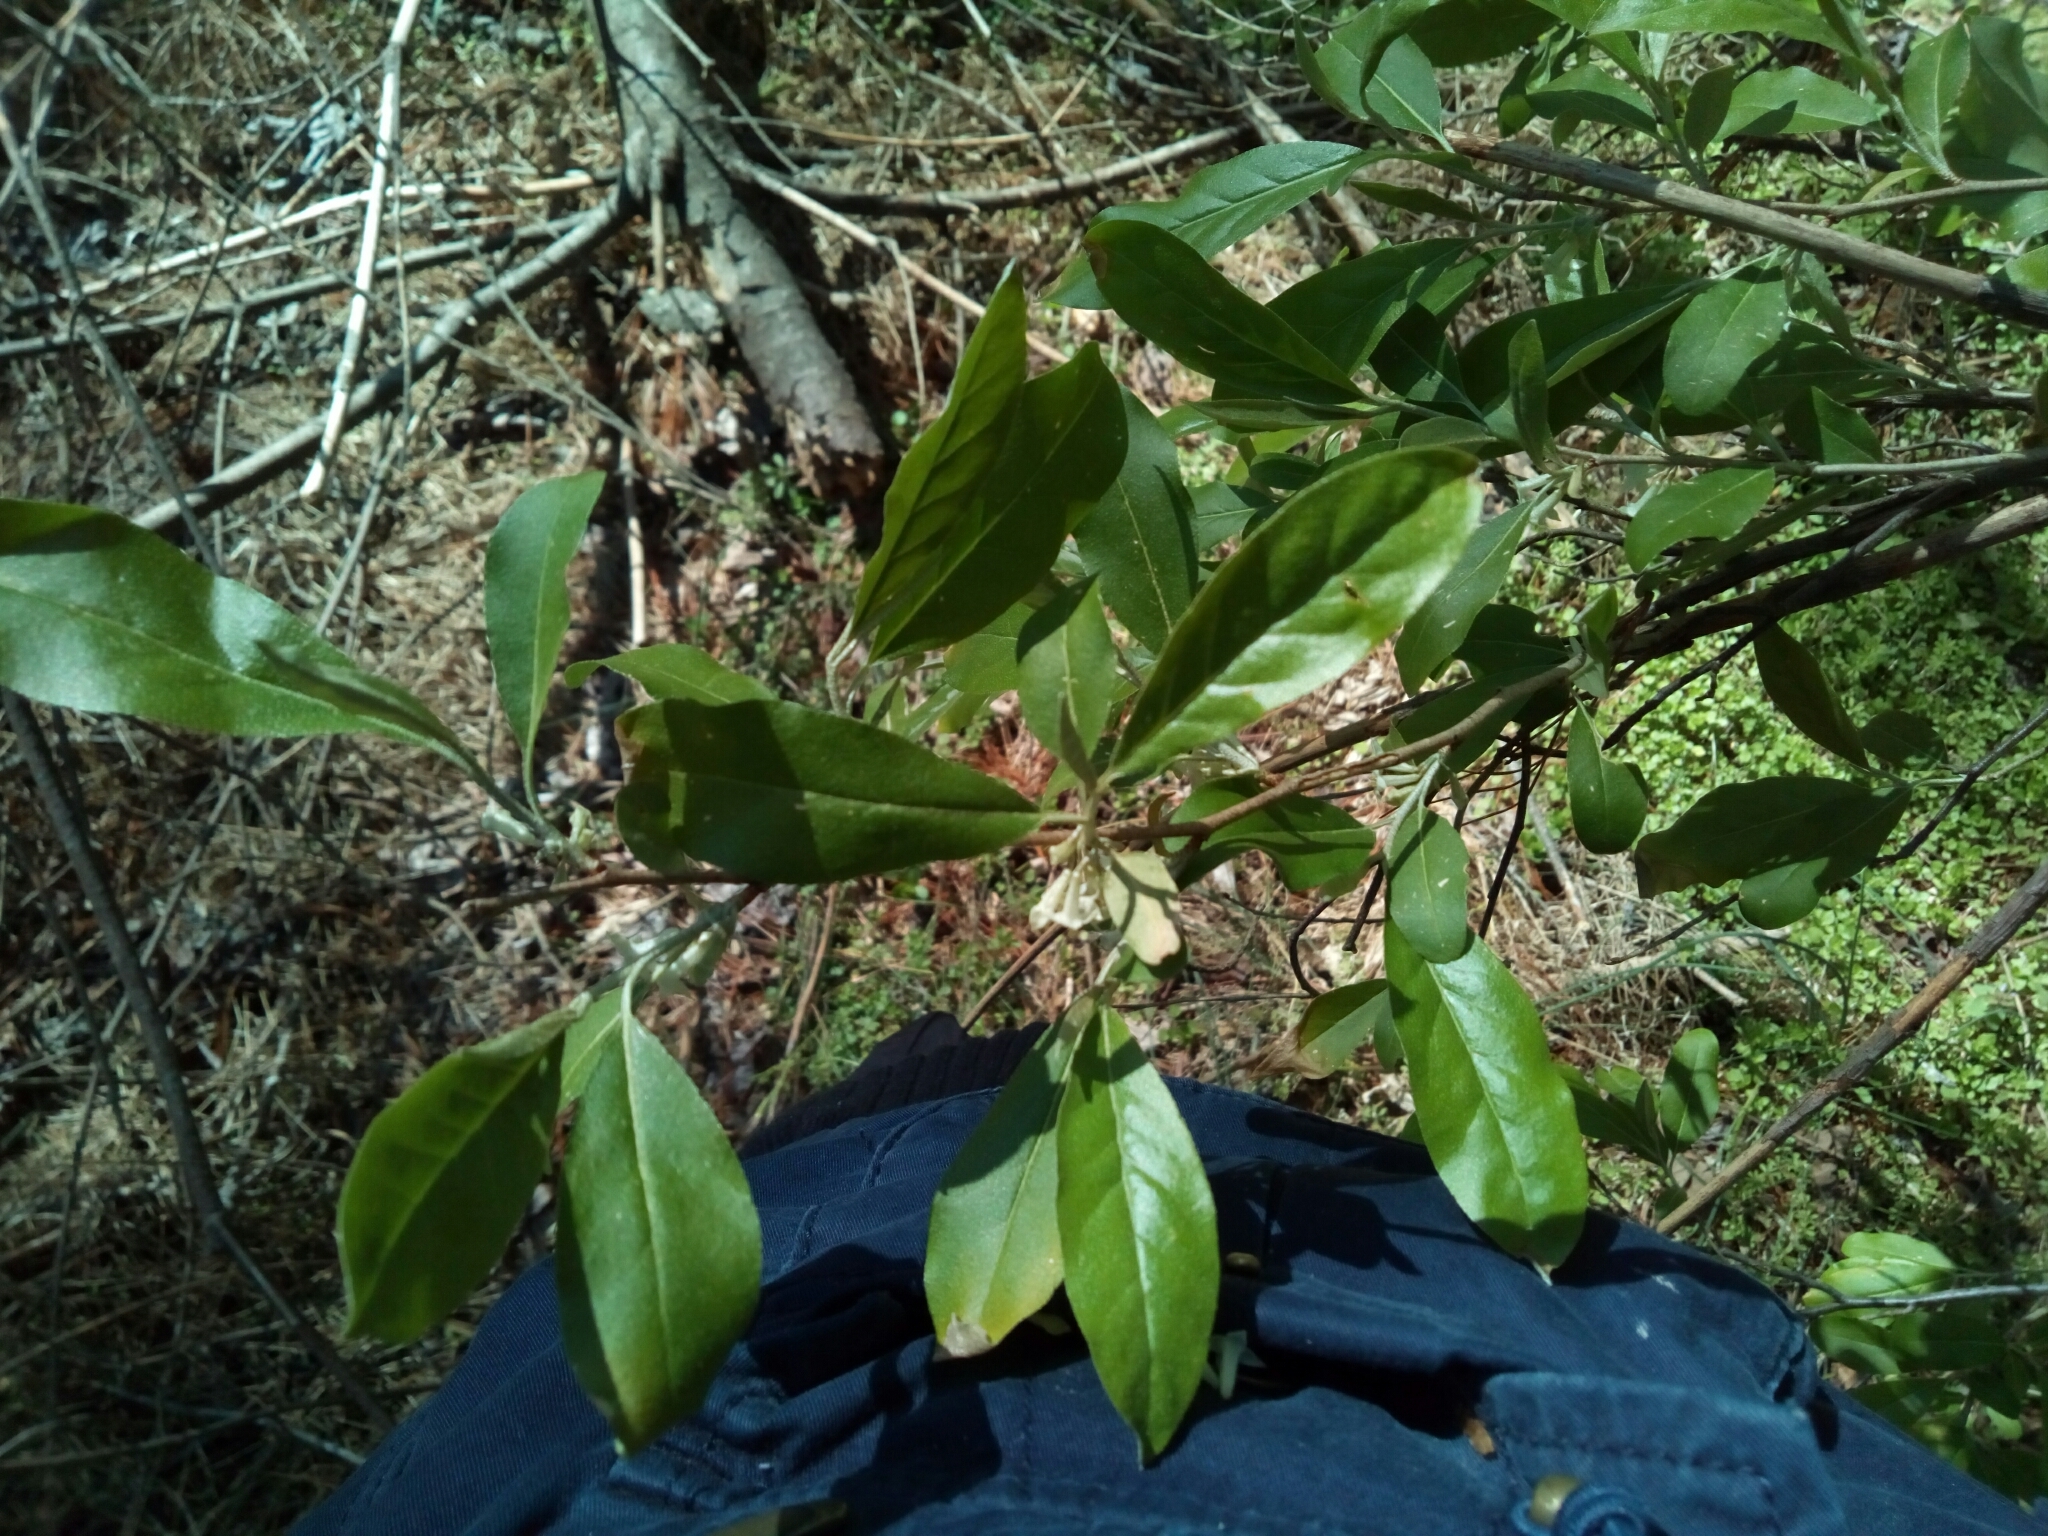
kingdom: Plantae
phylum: Tracheophyta
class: Magnoliopsida
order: Rosales
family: Elaeagnaceae
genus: Elaeagnus
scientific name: Elaeagnus umbellata
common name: Autumn olive
